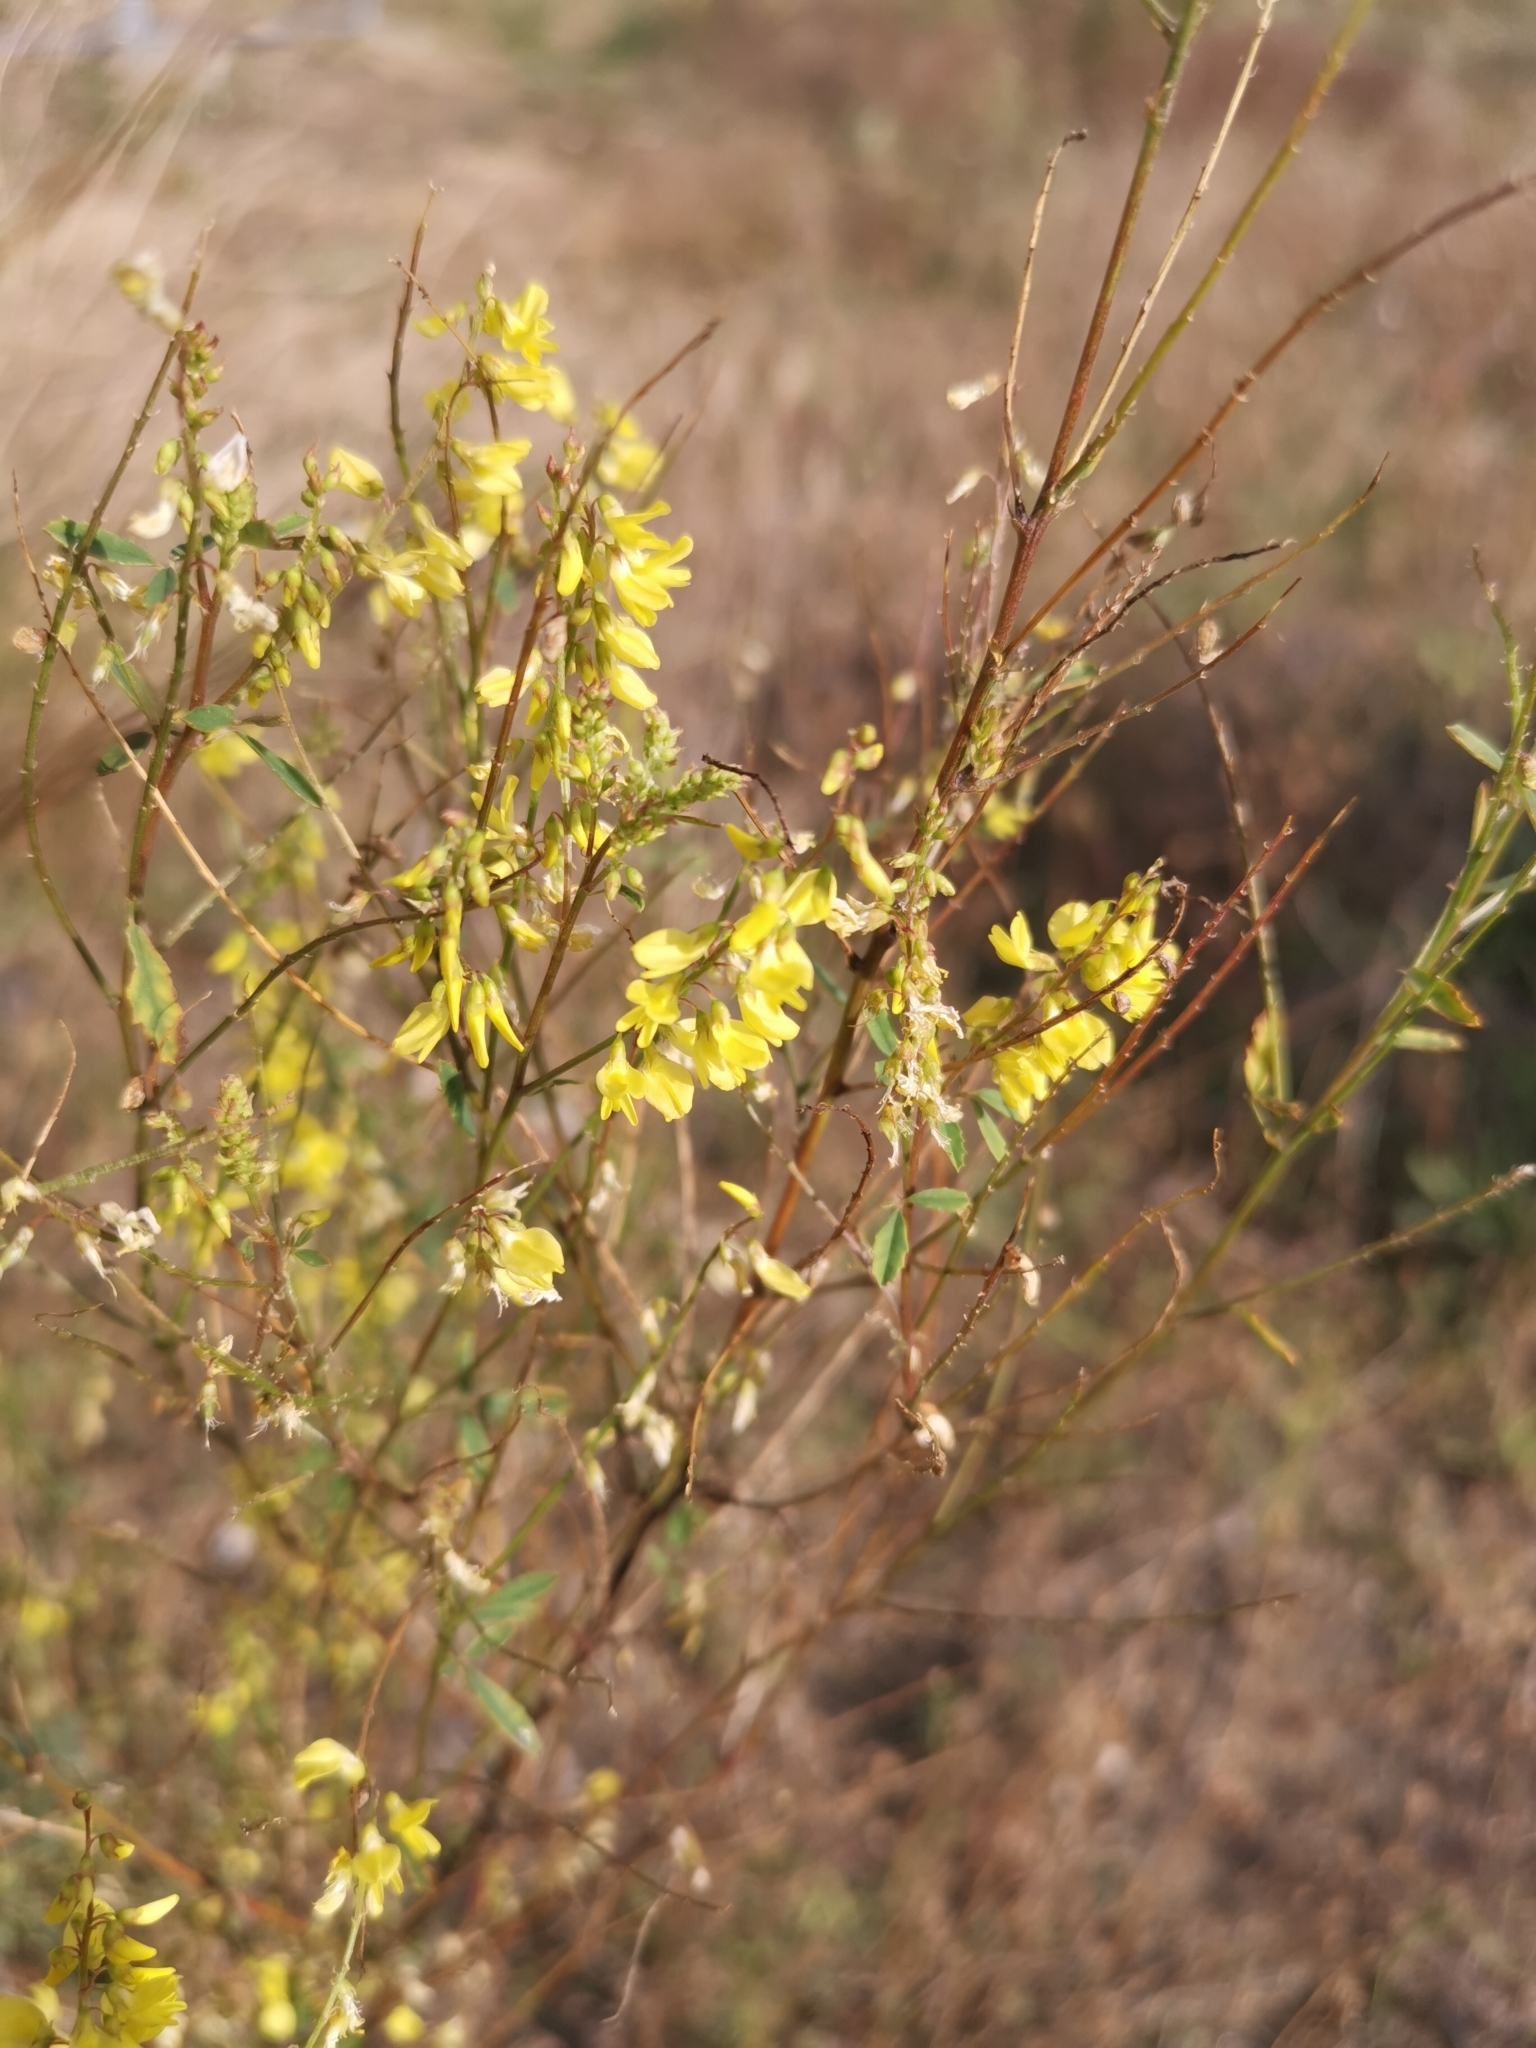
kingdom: Plantae
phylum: Tracheophyta
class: Magnoliopsida
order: Fabales
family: Fabaceae
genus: Melilotus
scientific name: Melilotus officinalis
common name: Sweetclover
